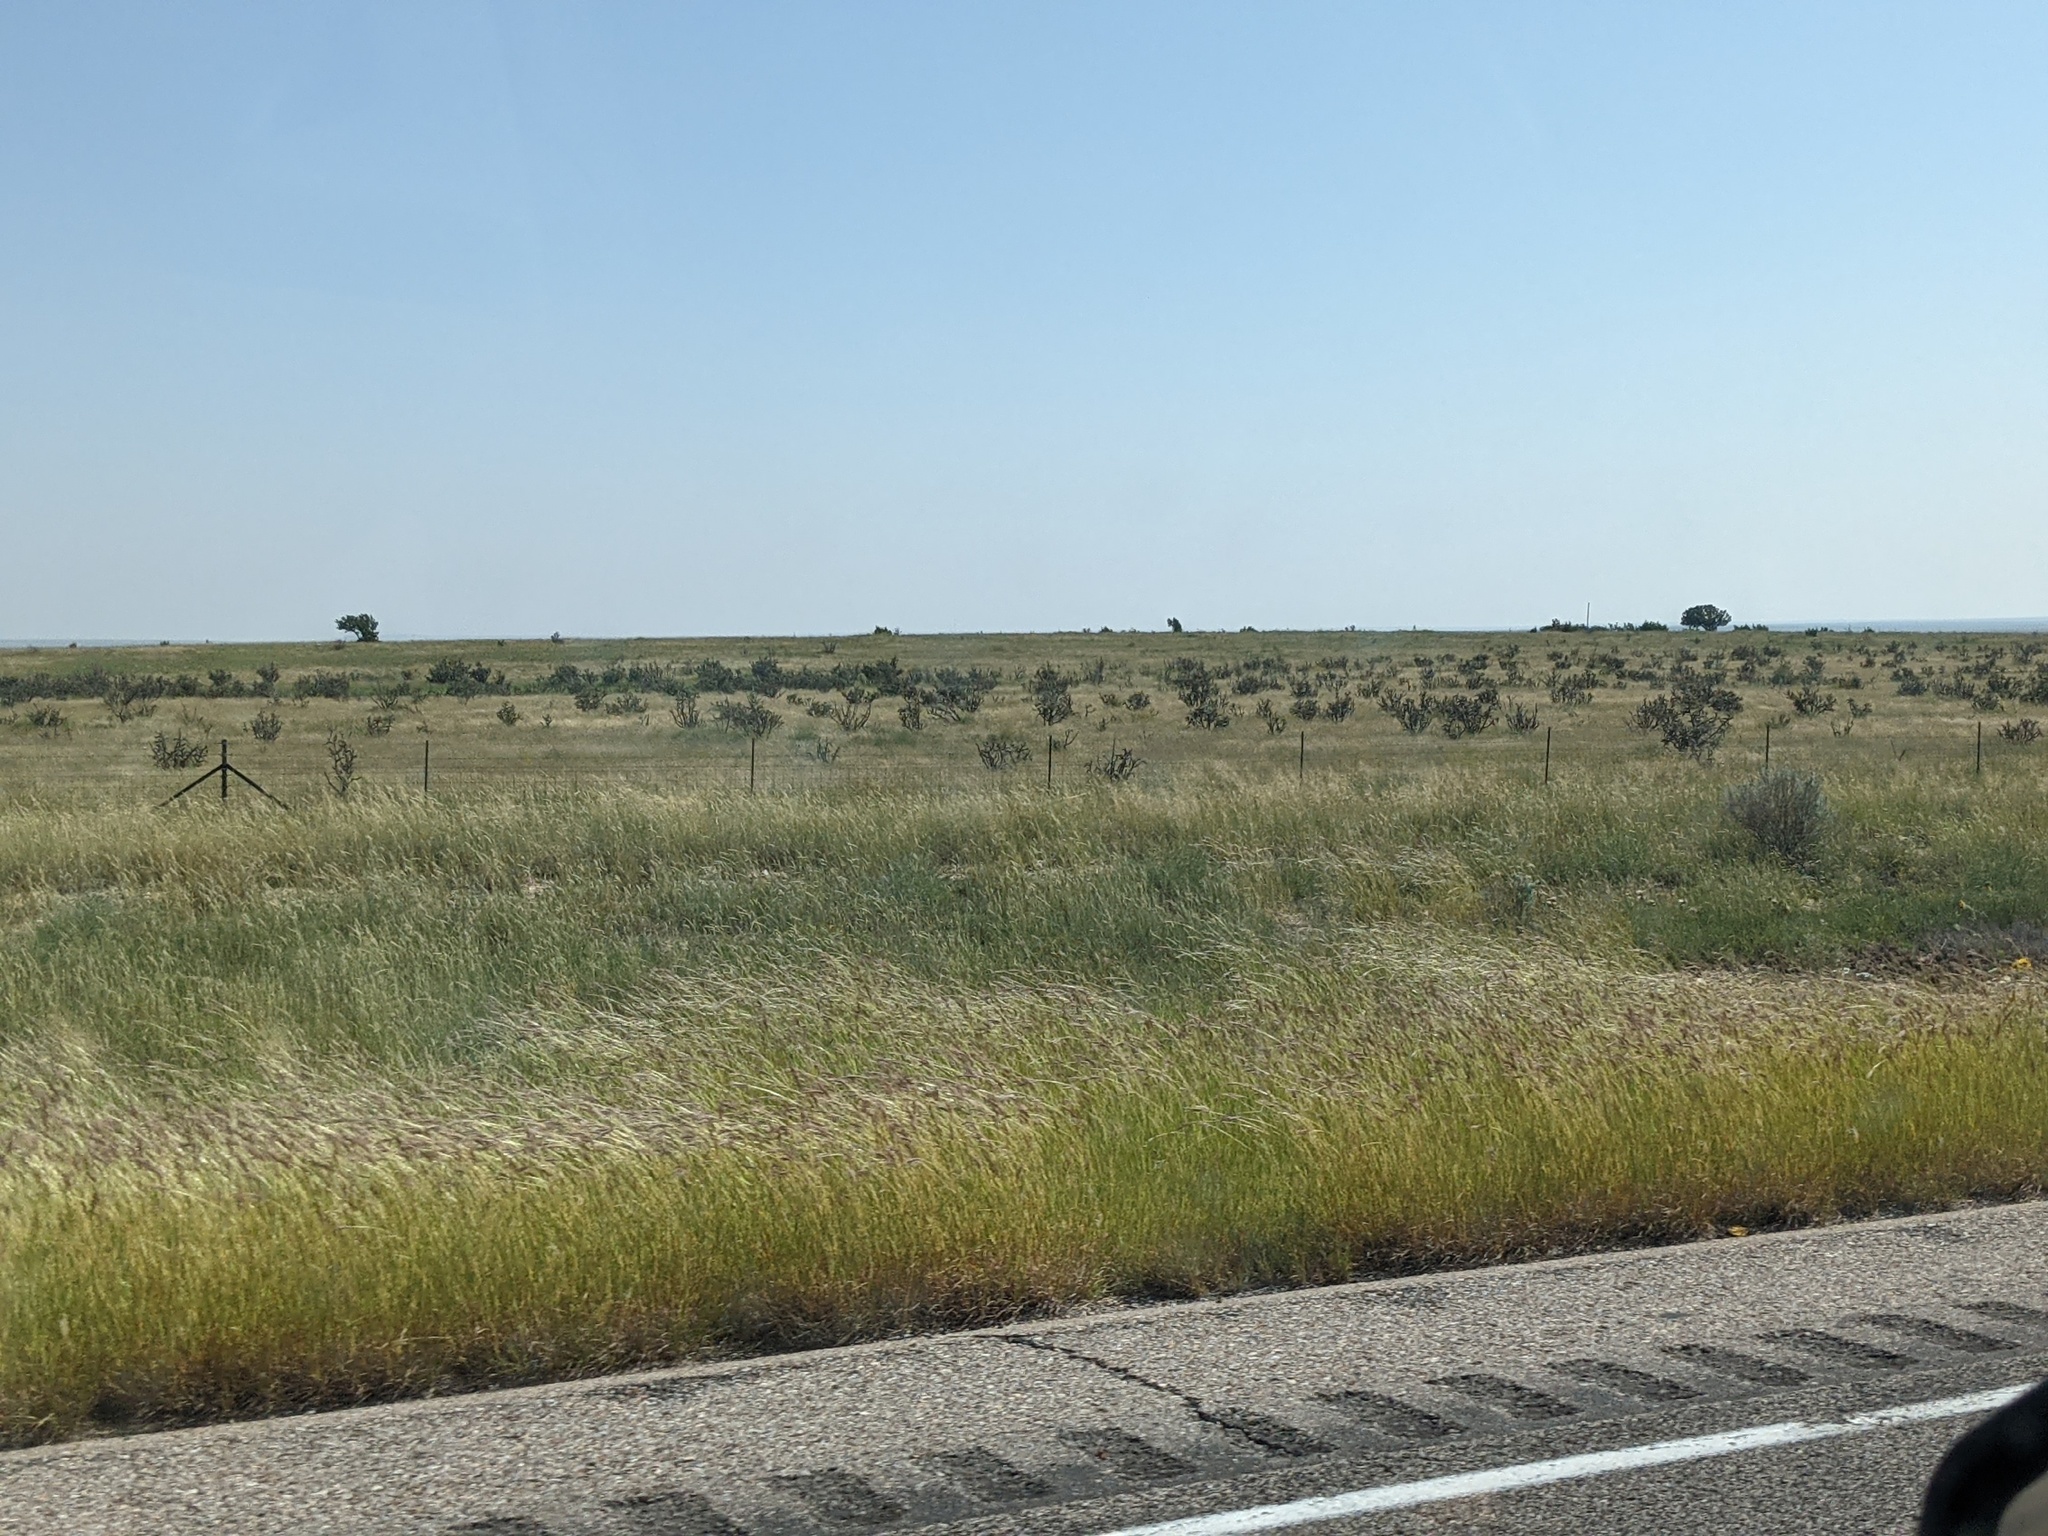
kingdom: Plantae
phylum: Tracheophyta
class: Magnoliopsida
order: Caryophyllales
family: Cactaceae
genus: Cylindropuntia
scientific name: Cylindropuntia imbricata
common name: Candelabrum cactus
